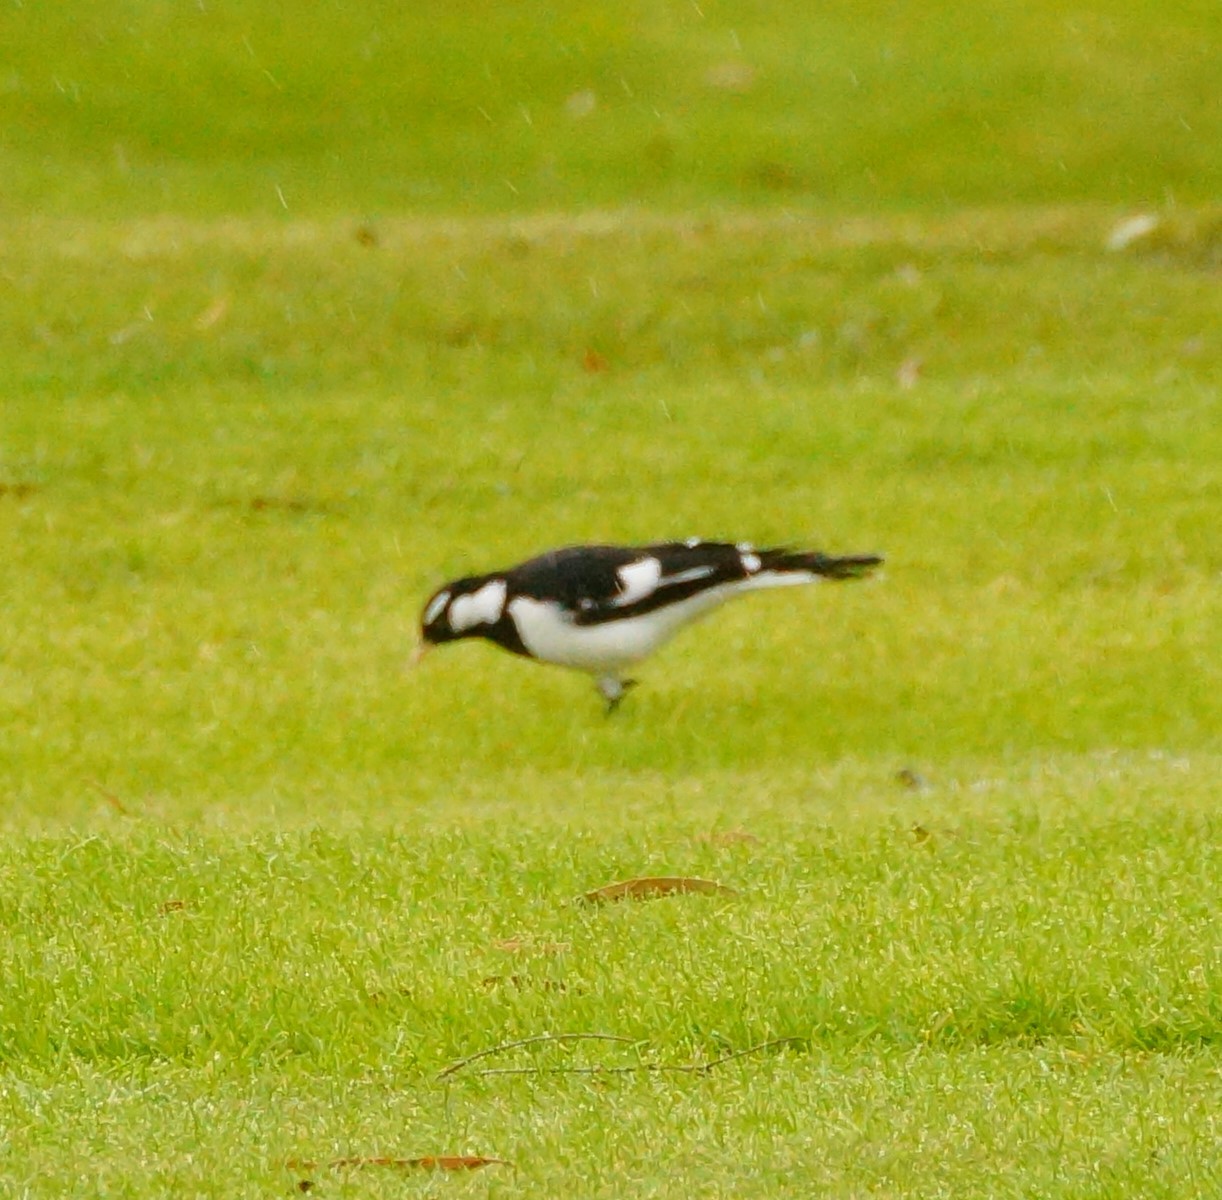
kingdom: Animalia
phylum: Chordata
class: Aves
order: Passeriformes
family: Monarchidae
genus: Grallina
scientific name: Grallina cyanoleuca
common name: Magpie-lark
